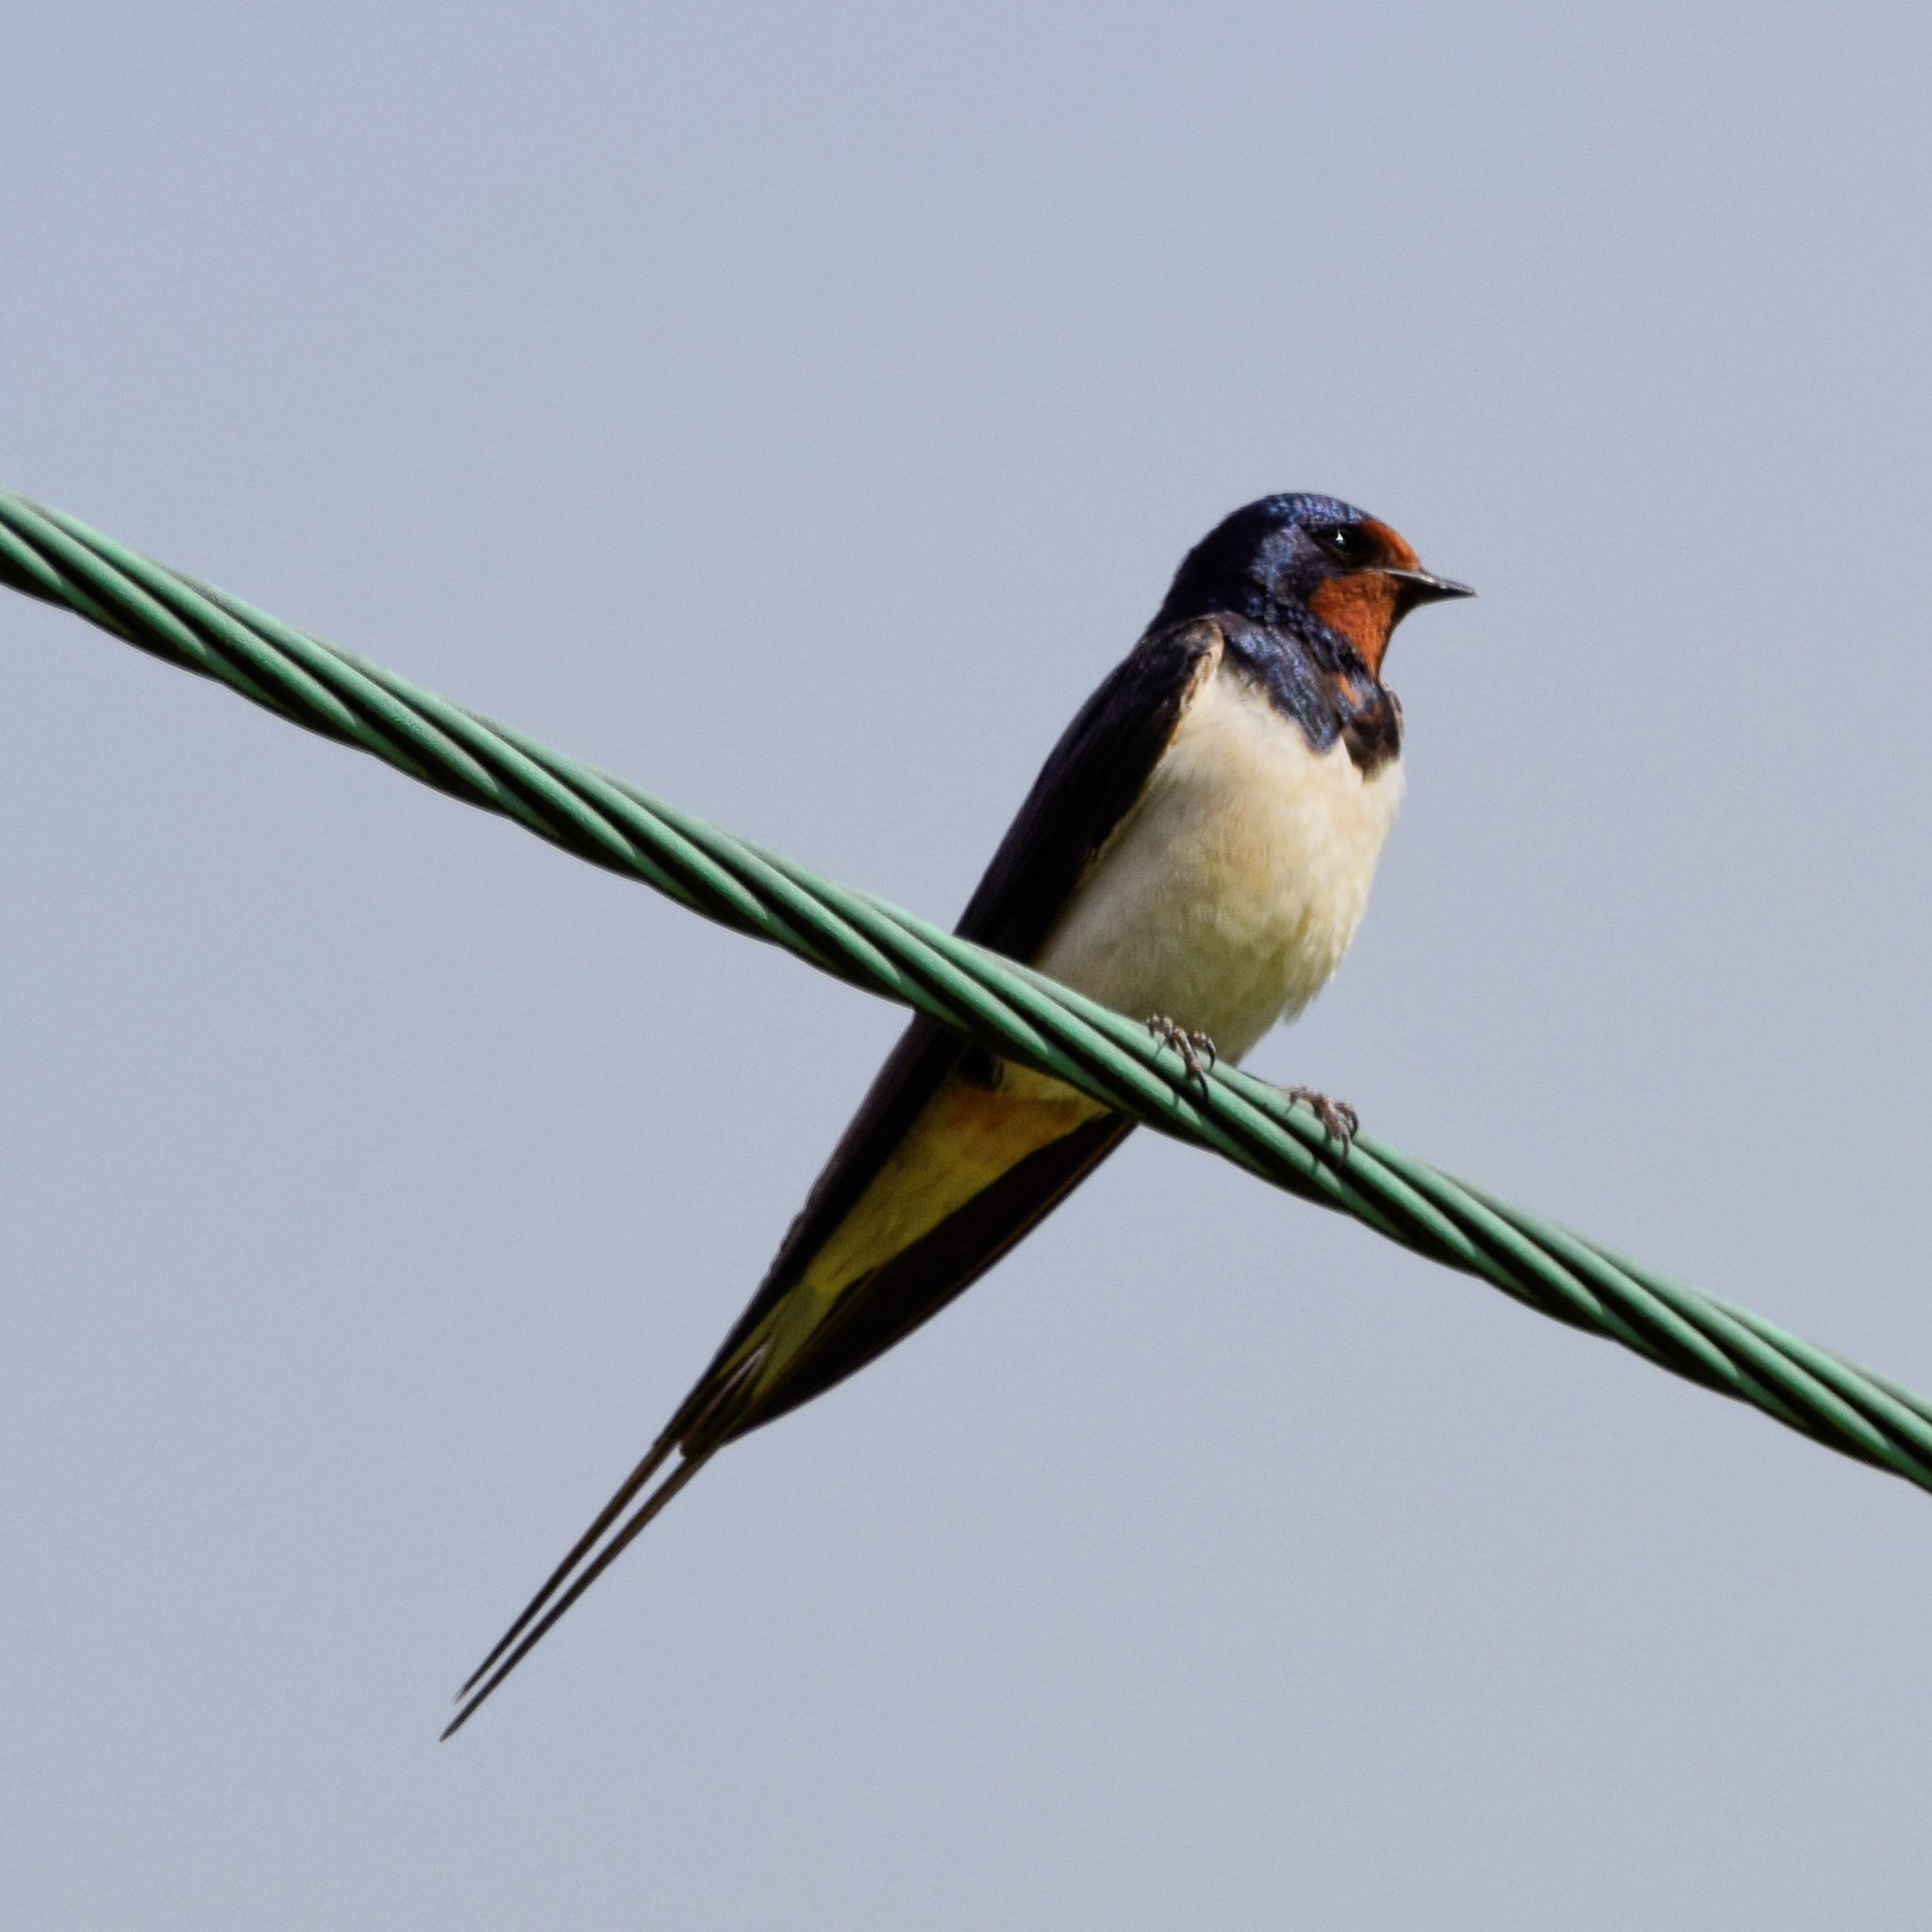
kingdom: Animalia
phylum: Chordata
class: Aves
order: Passeriformes
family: Hirundinidae
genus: Hirundo
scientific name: Hirundo rustica
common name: Barn swallow
